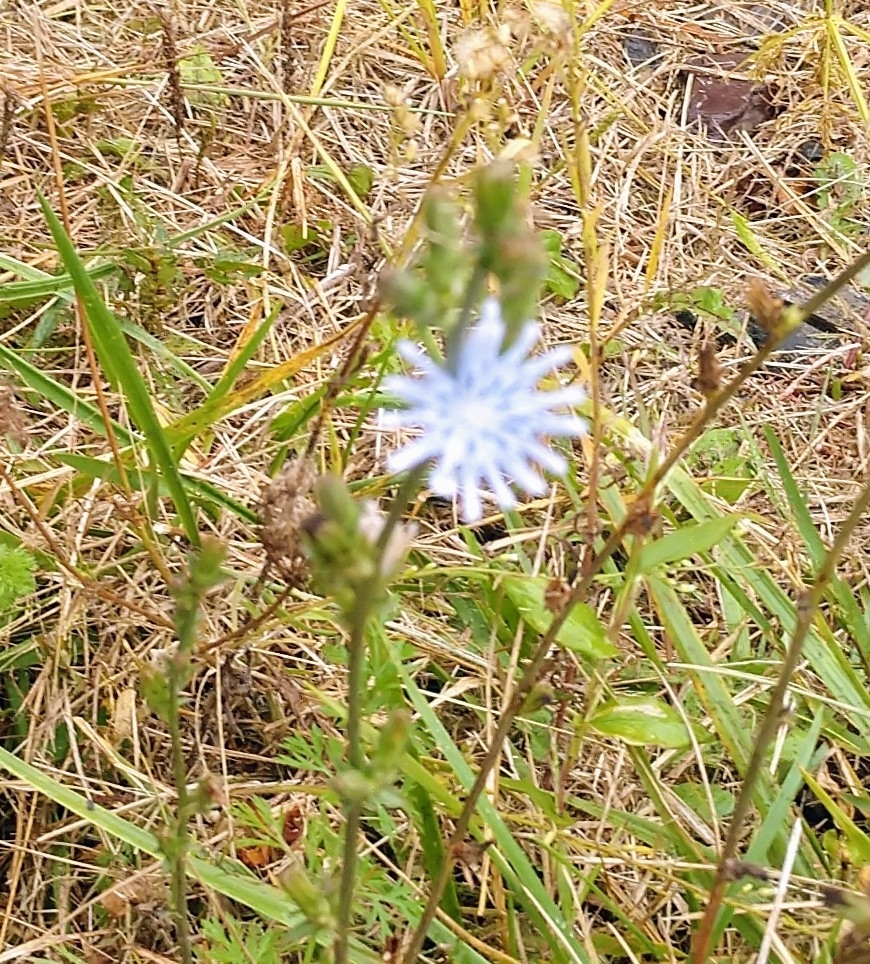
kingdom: Plantae
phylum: Tracheophyta
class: Magnoliopsida
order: Asterales
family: Asteraceae
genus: Cichorium
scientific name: Cichorium intybus
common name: Chicory
